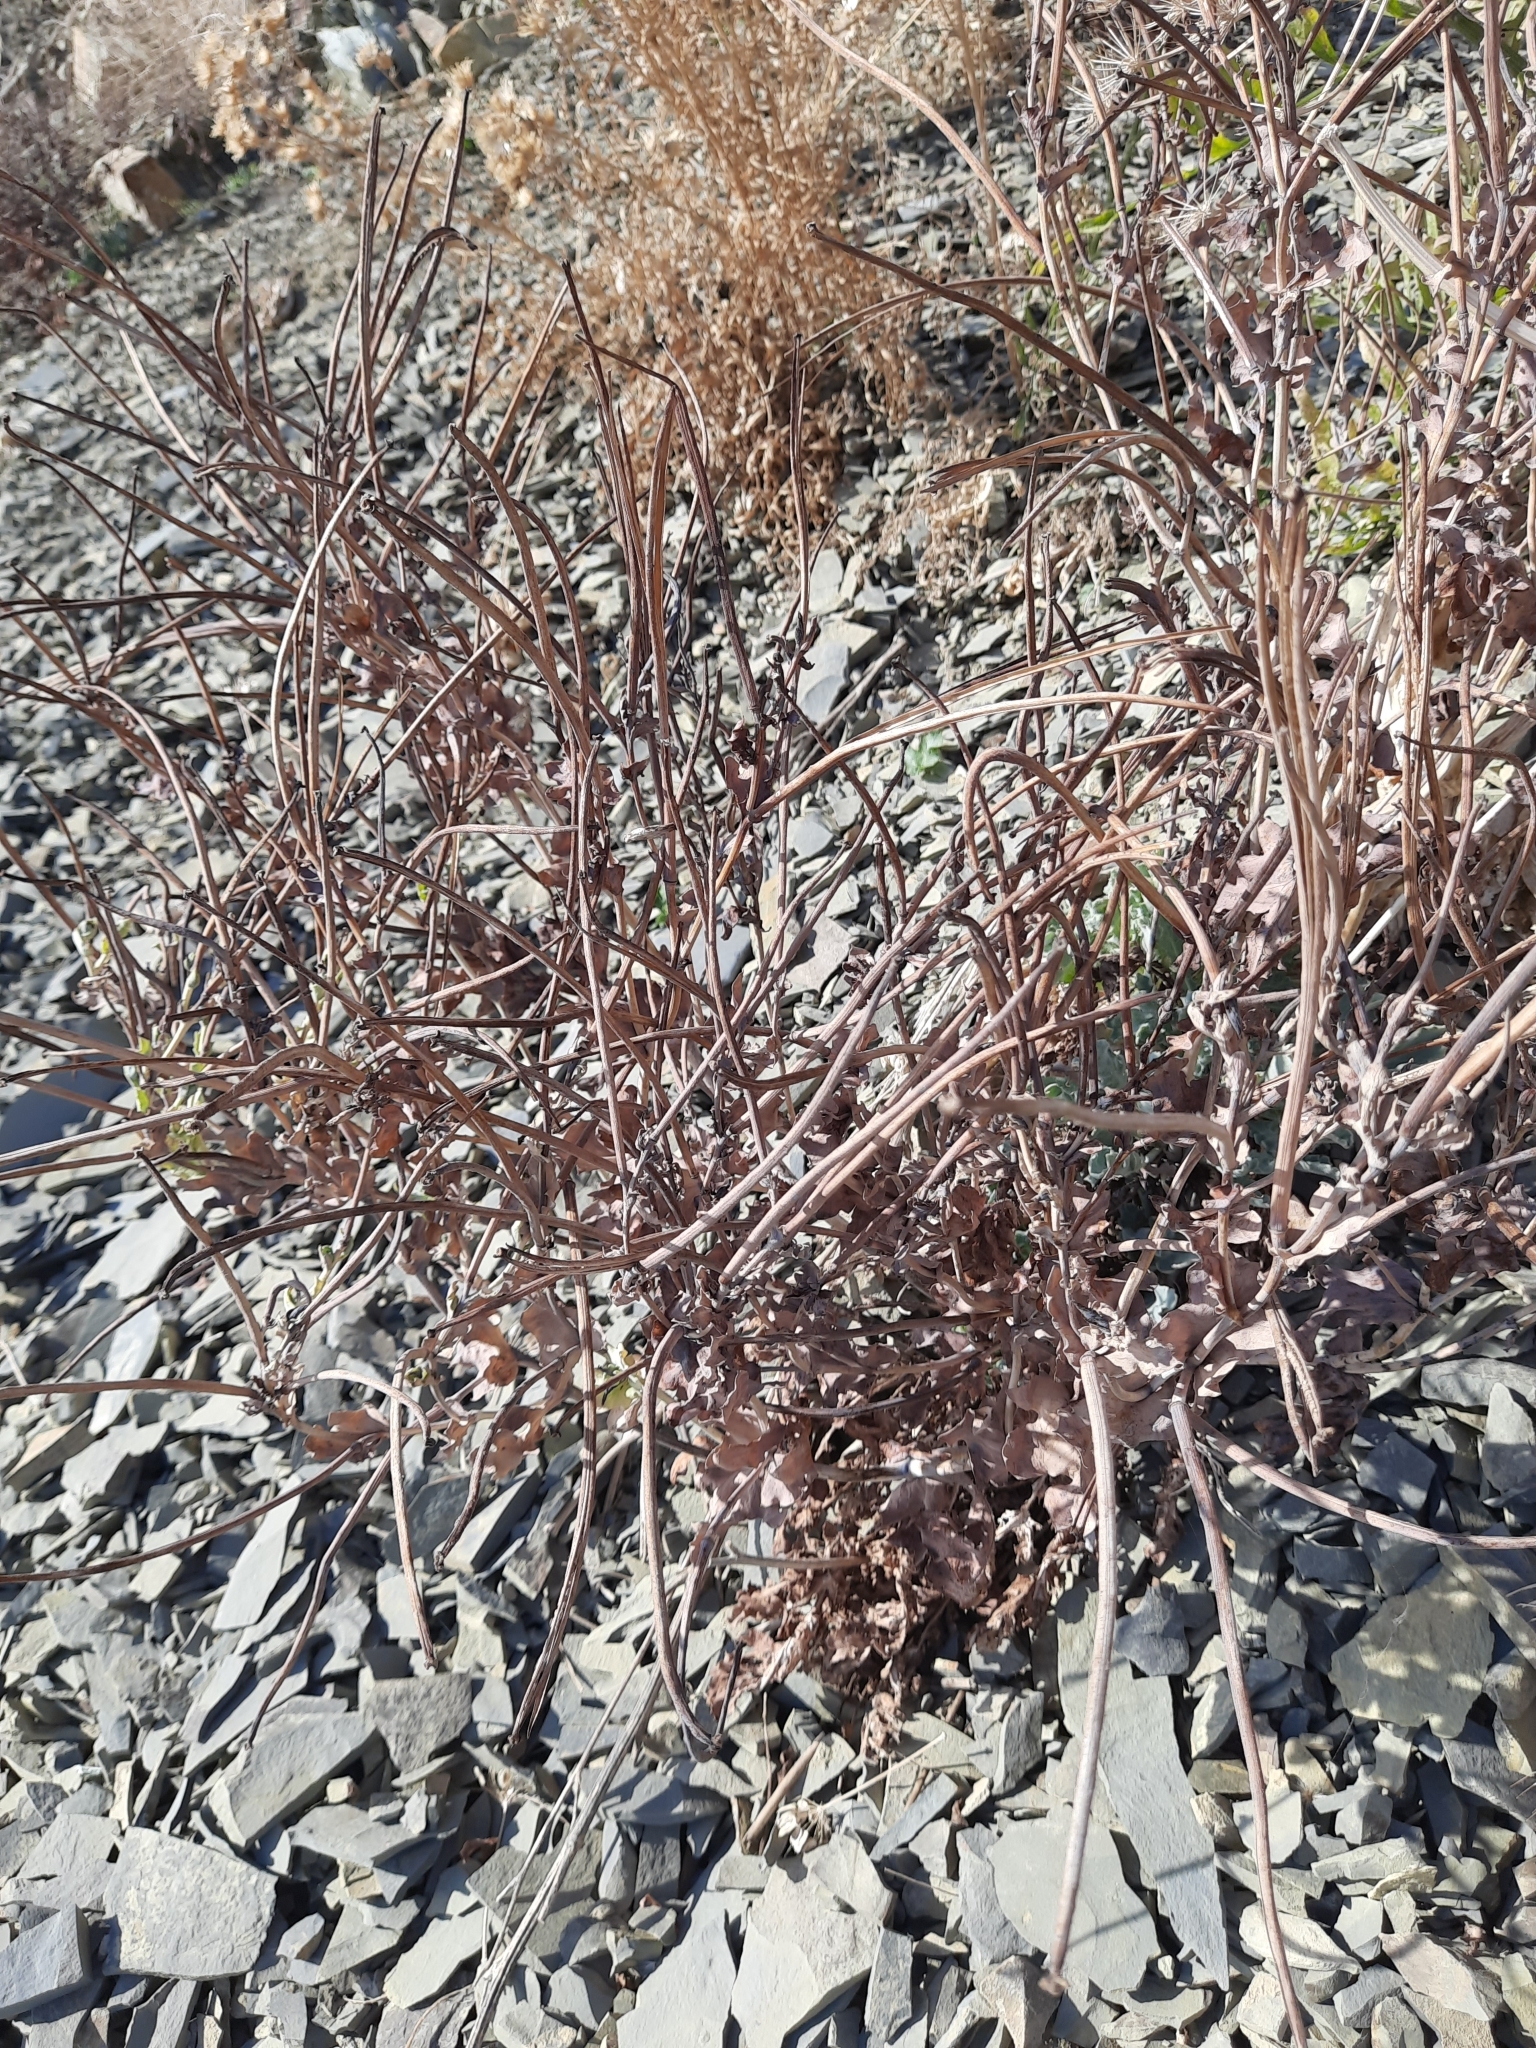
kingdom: Plantae
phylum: Tracheophyta
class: Magnoliopsida
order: Ranunculales
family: Papaveraceae
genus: Glaucium
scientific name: Glaucium flavum
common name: Yellow horned-poppy
